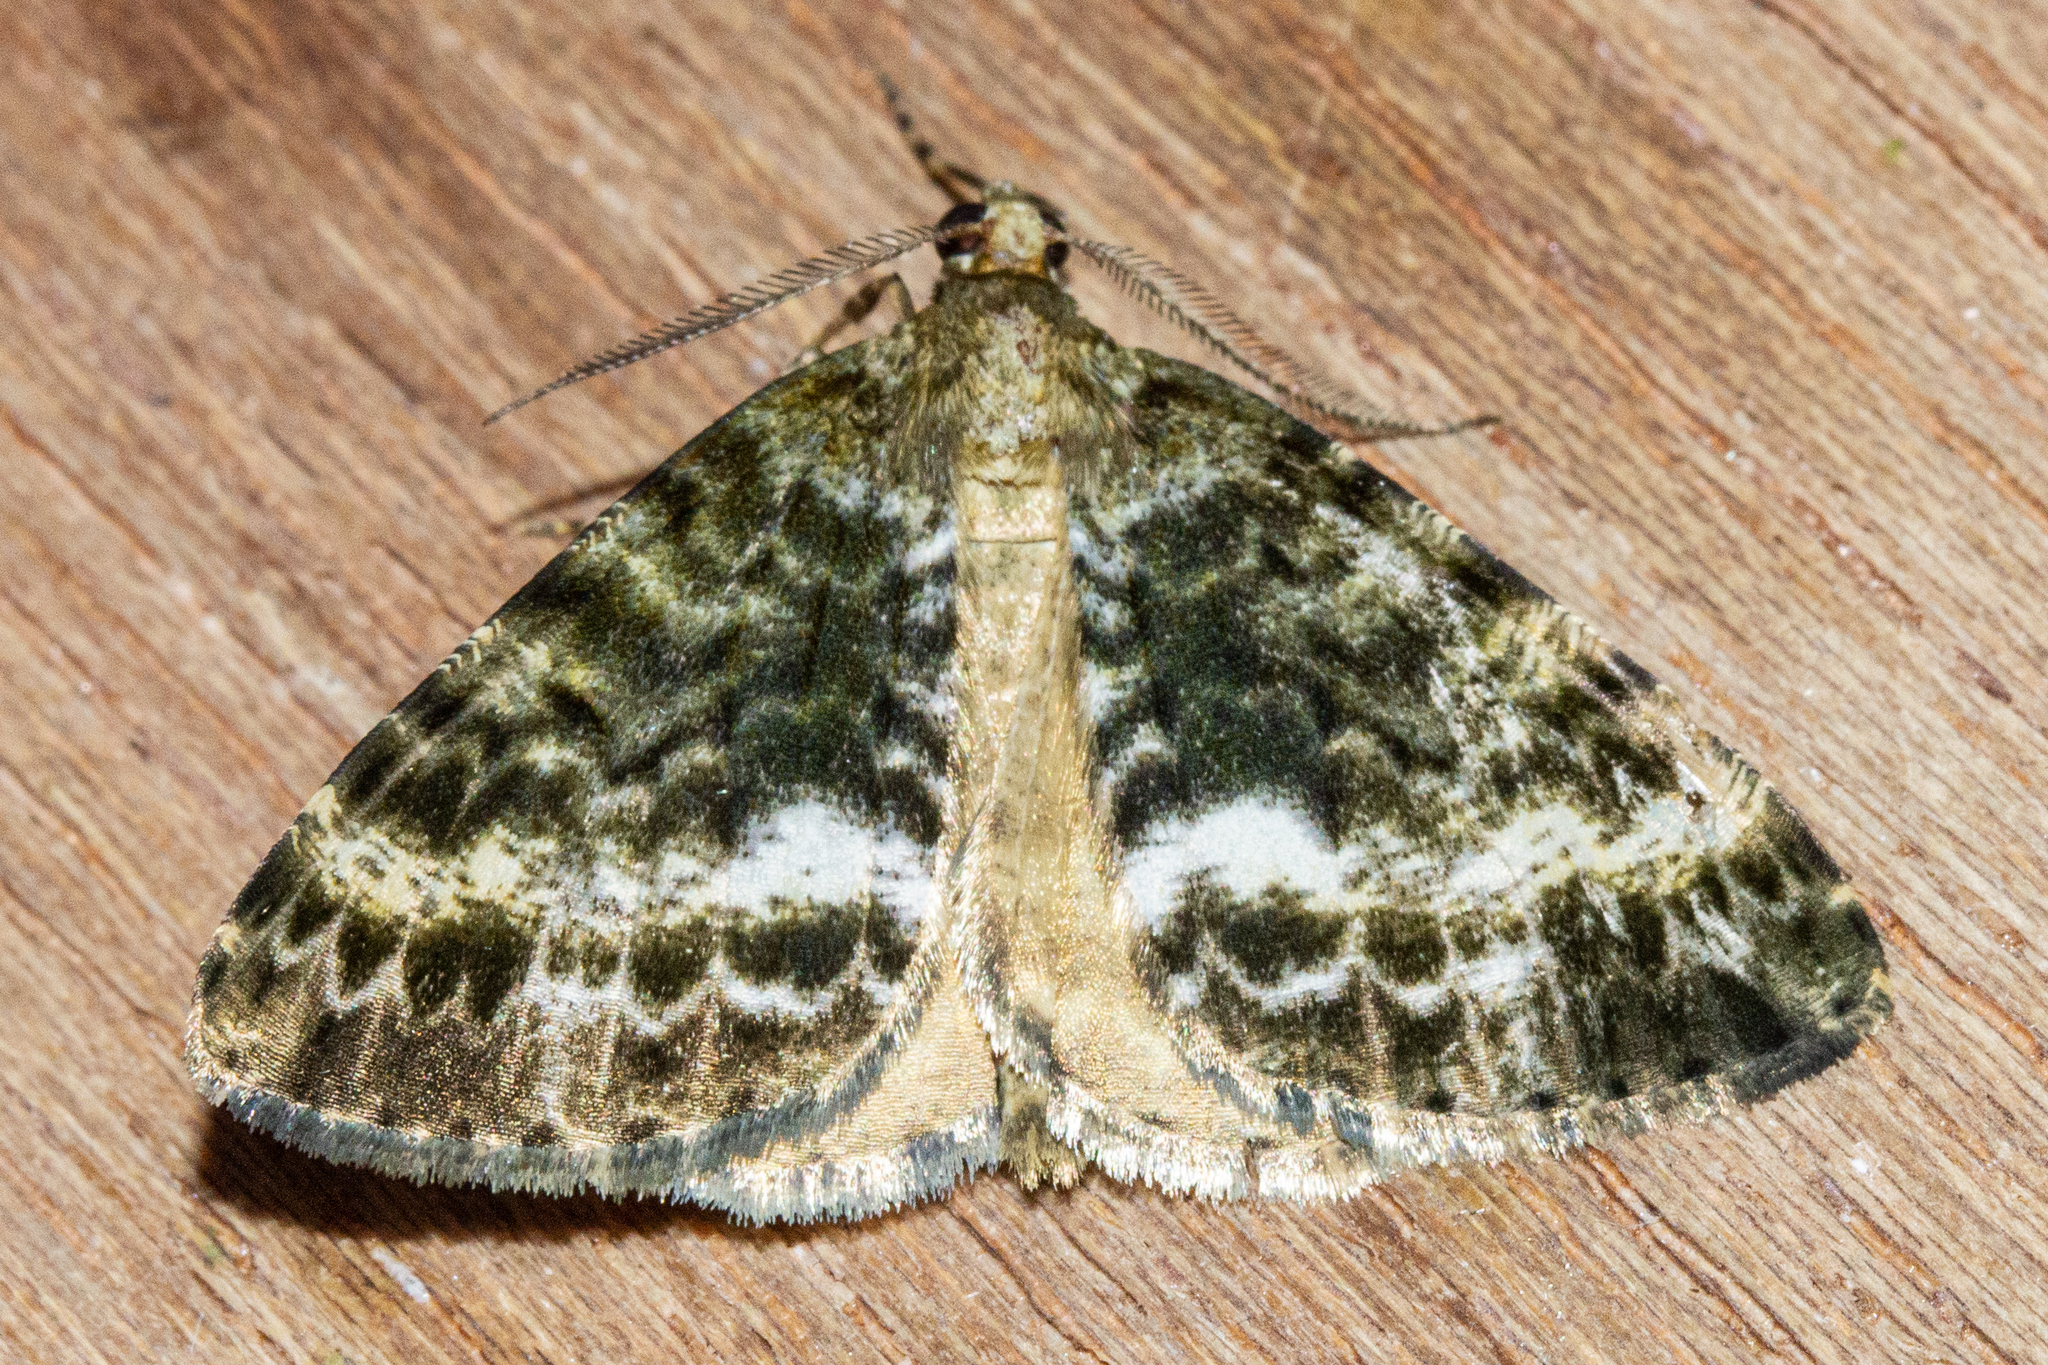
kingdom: Animalia
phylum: Arthropoda
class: Insecta
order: Lepidoptera
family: Geometridae
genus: Pseudocoremia
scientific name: Pseudocoremia lactiflua
